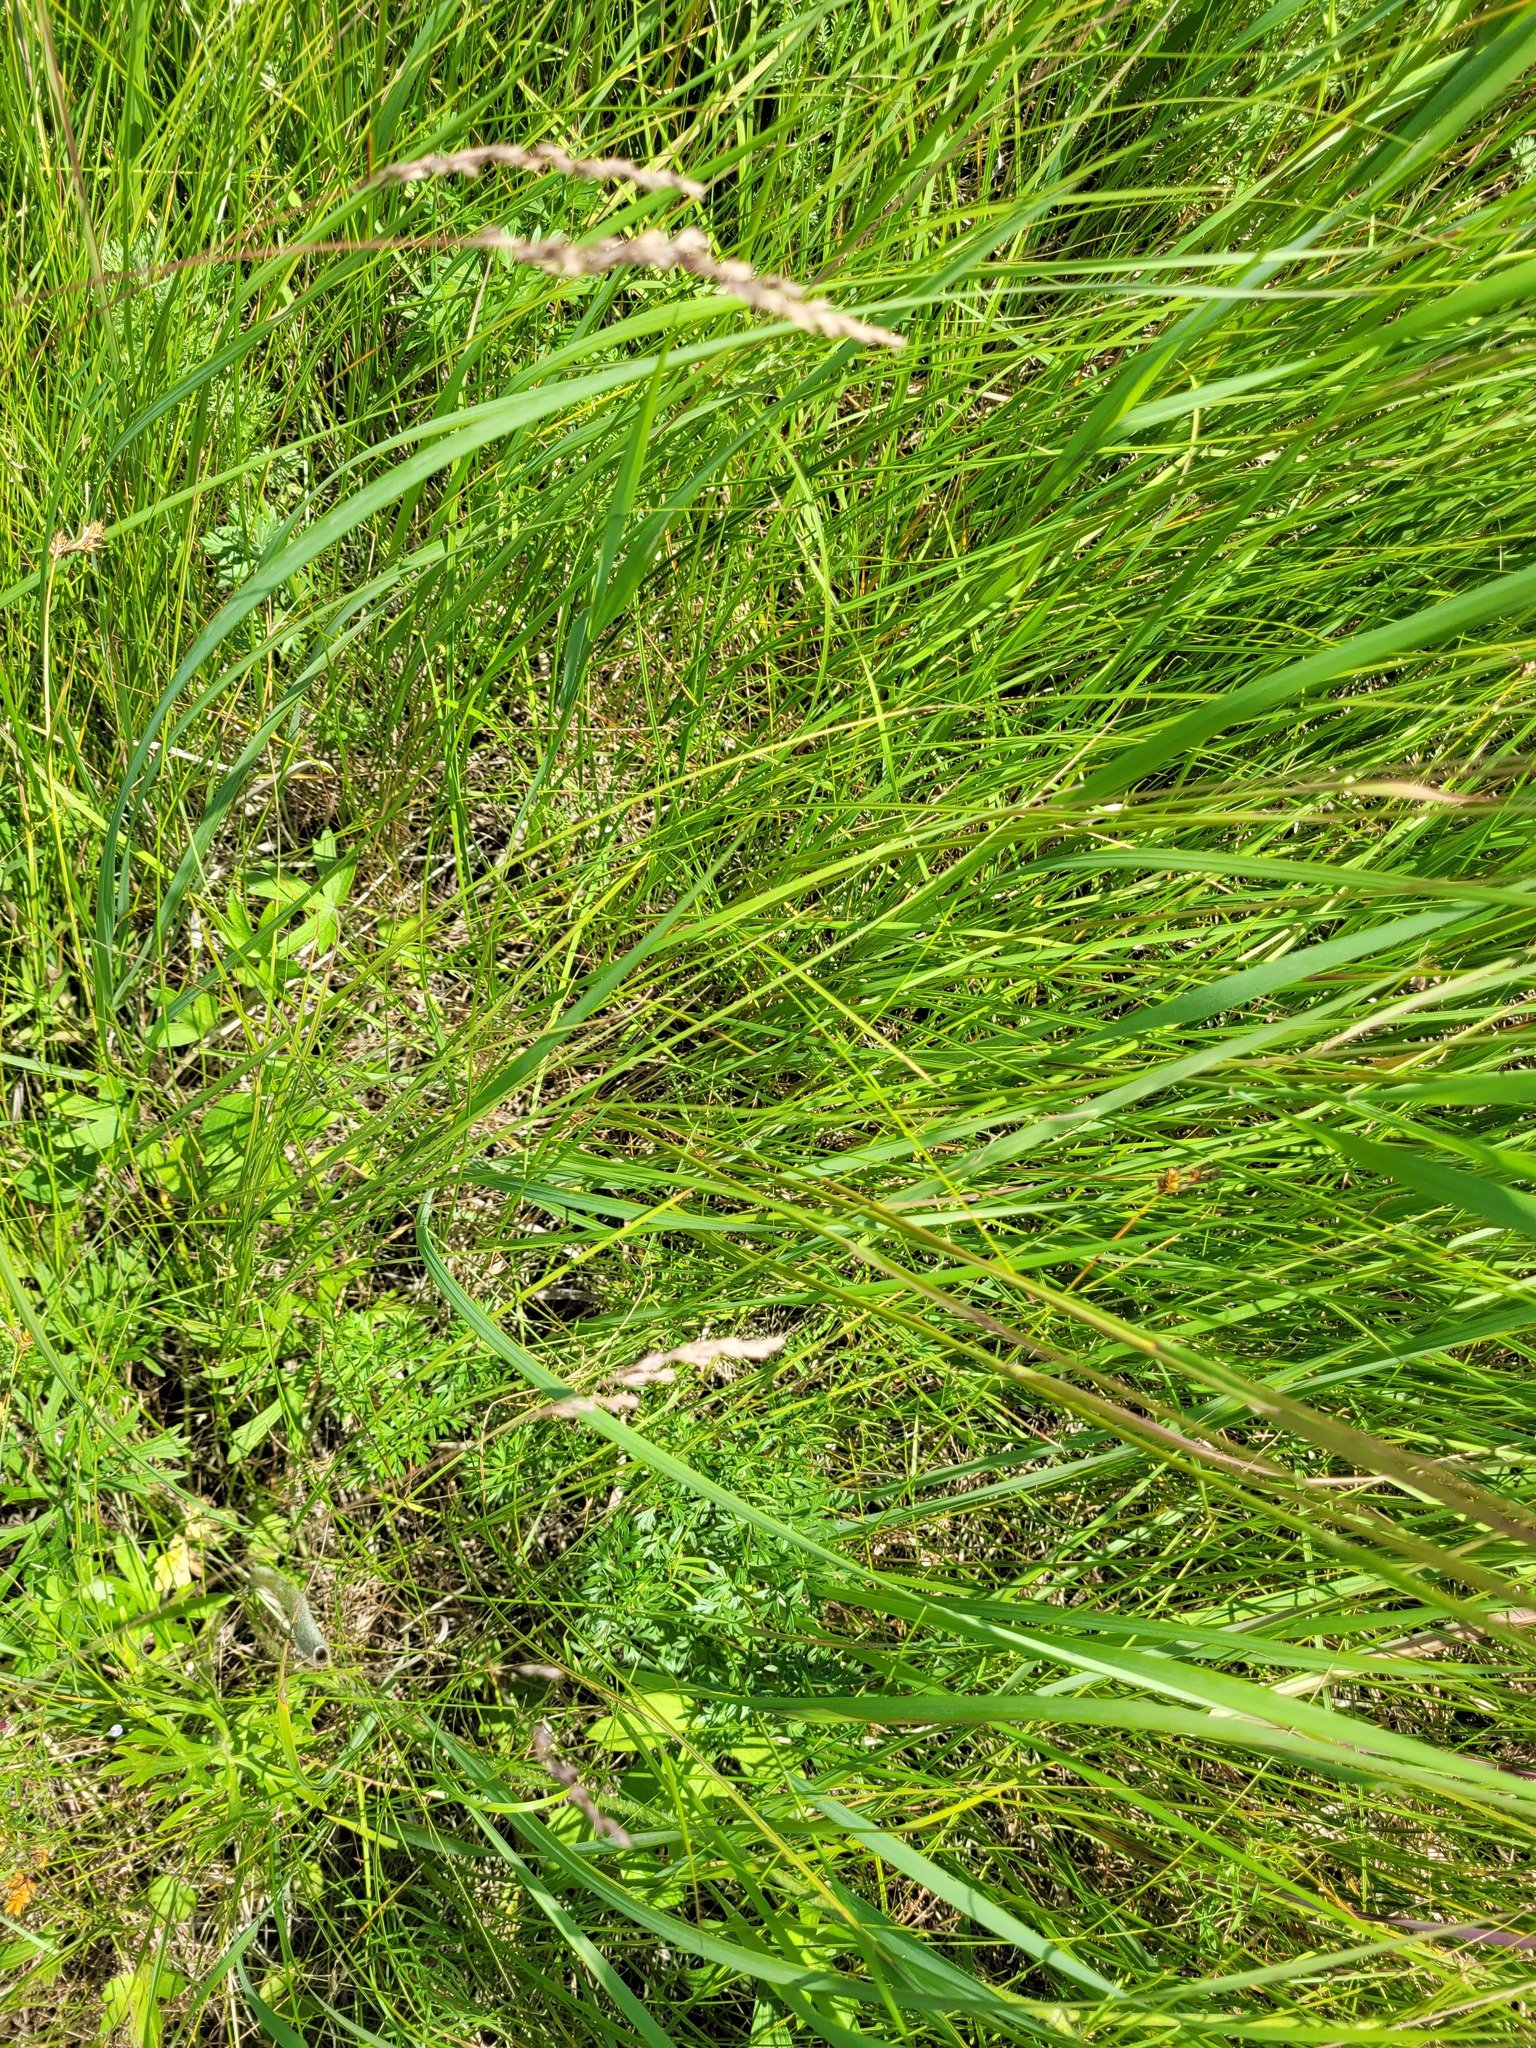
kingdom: Plantae
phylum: Tracheophyta
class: Liliopsida
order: Poales
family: Poaceae
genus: Koeleria
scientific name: Koeleria delavignei
